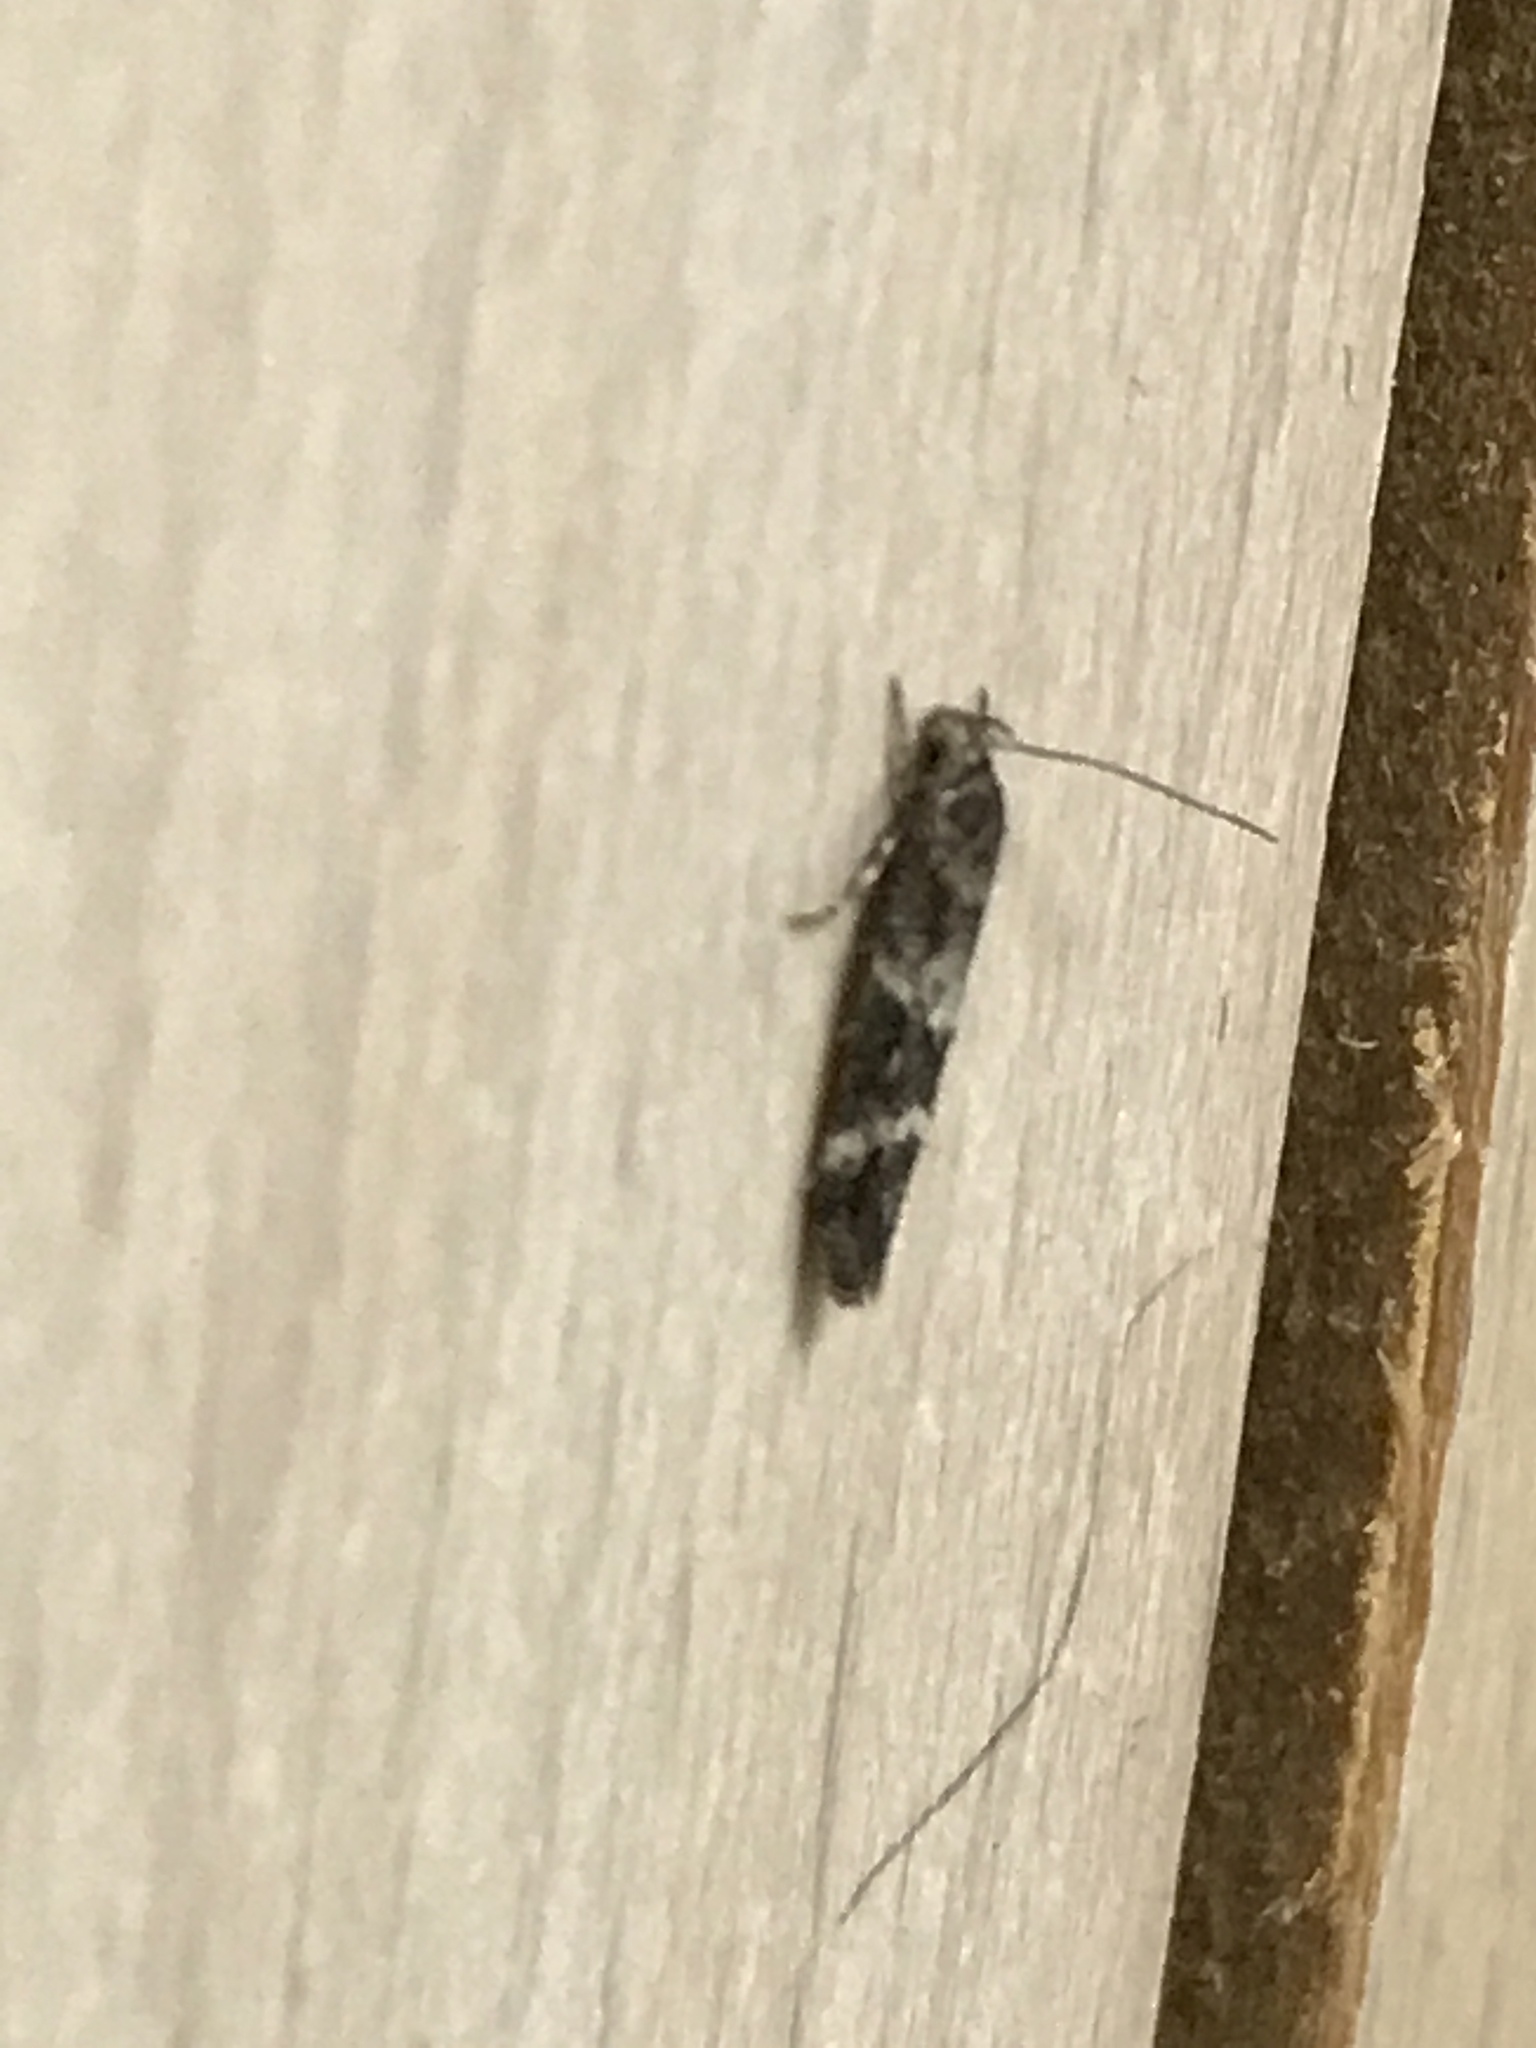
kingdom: Animalia
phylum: Arthropoda
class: Insecta
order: Lepidoptera
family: Momphidae
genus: Mompha
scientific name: Mompha subbistrigella
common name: Garden cosmet
